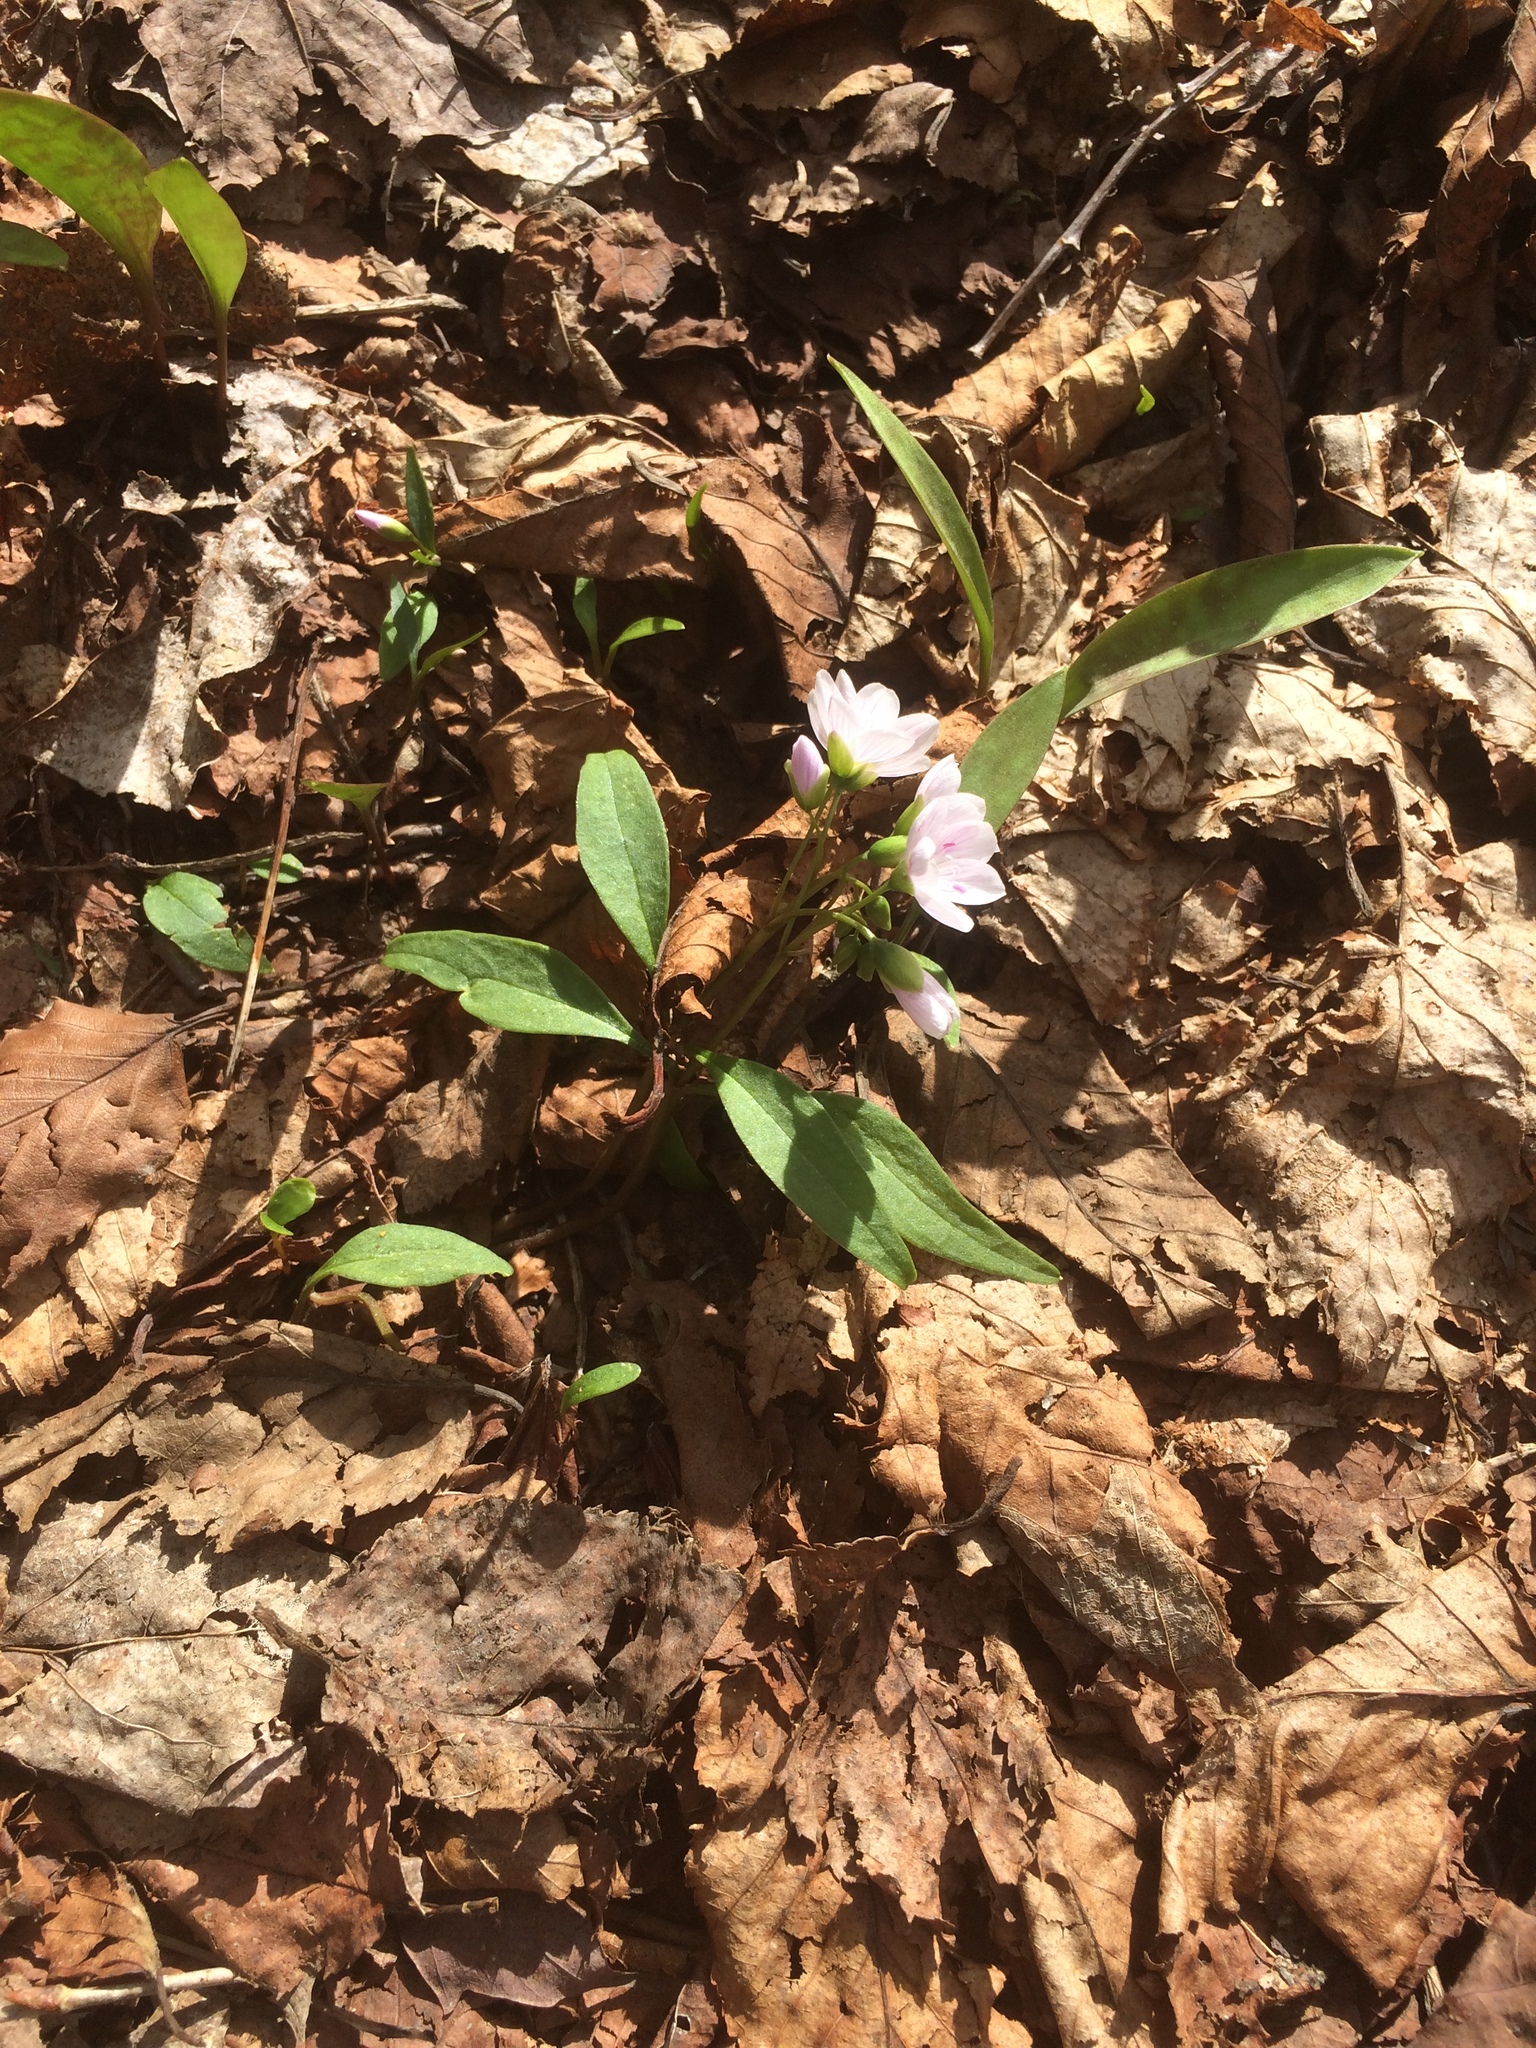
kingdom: Plantae
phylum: Tracheophyta
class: Magnoliopsida
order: Caryophyllales
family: Montiaceae
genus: Claytonia
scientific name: Claytonia caroliniana
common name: Carolina spring beauty
